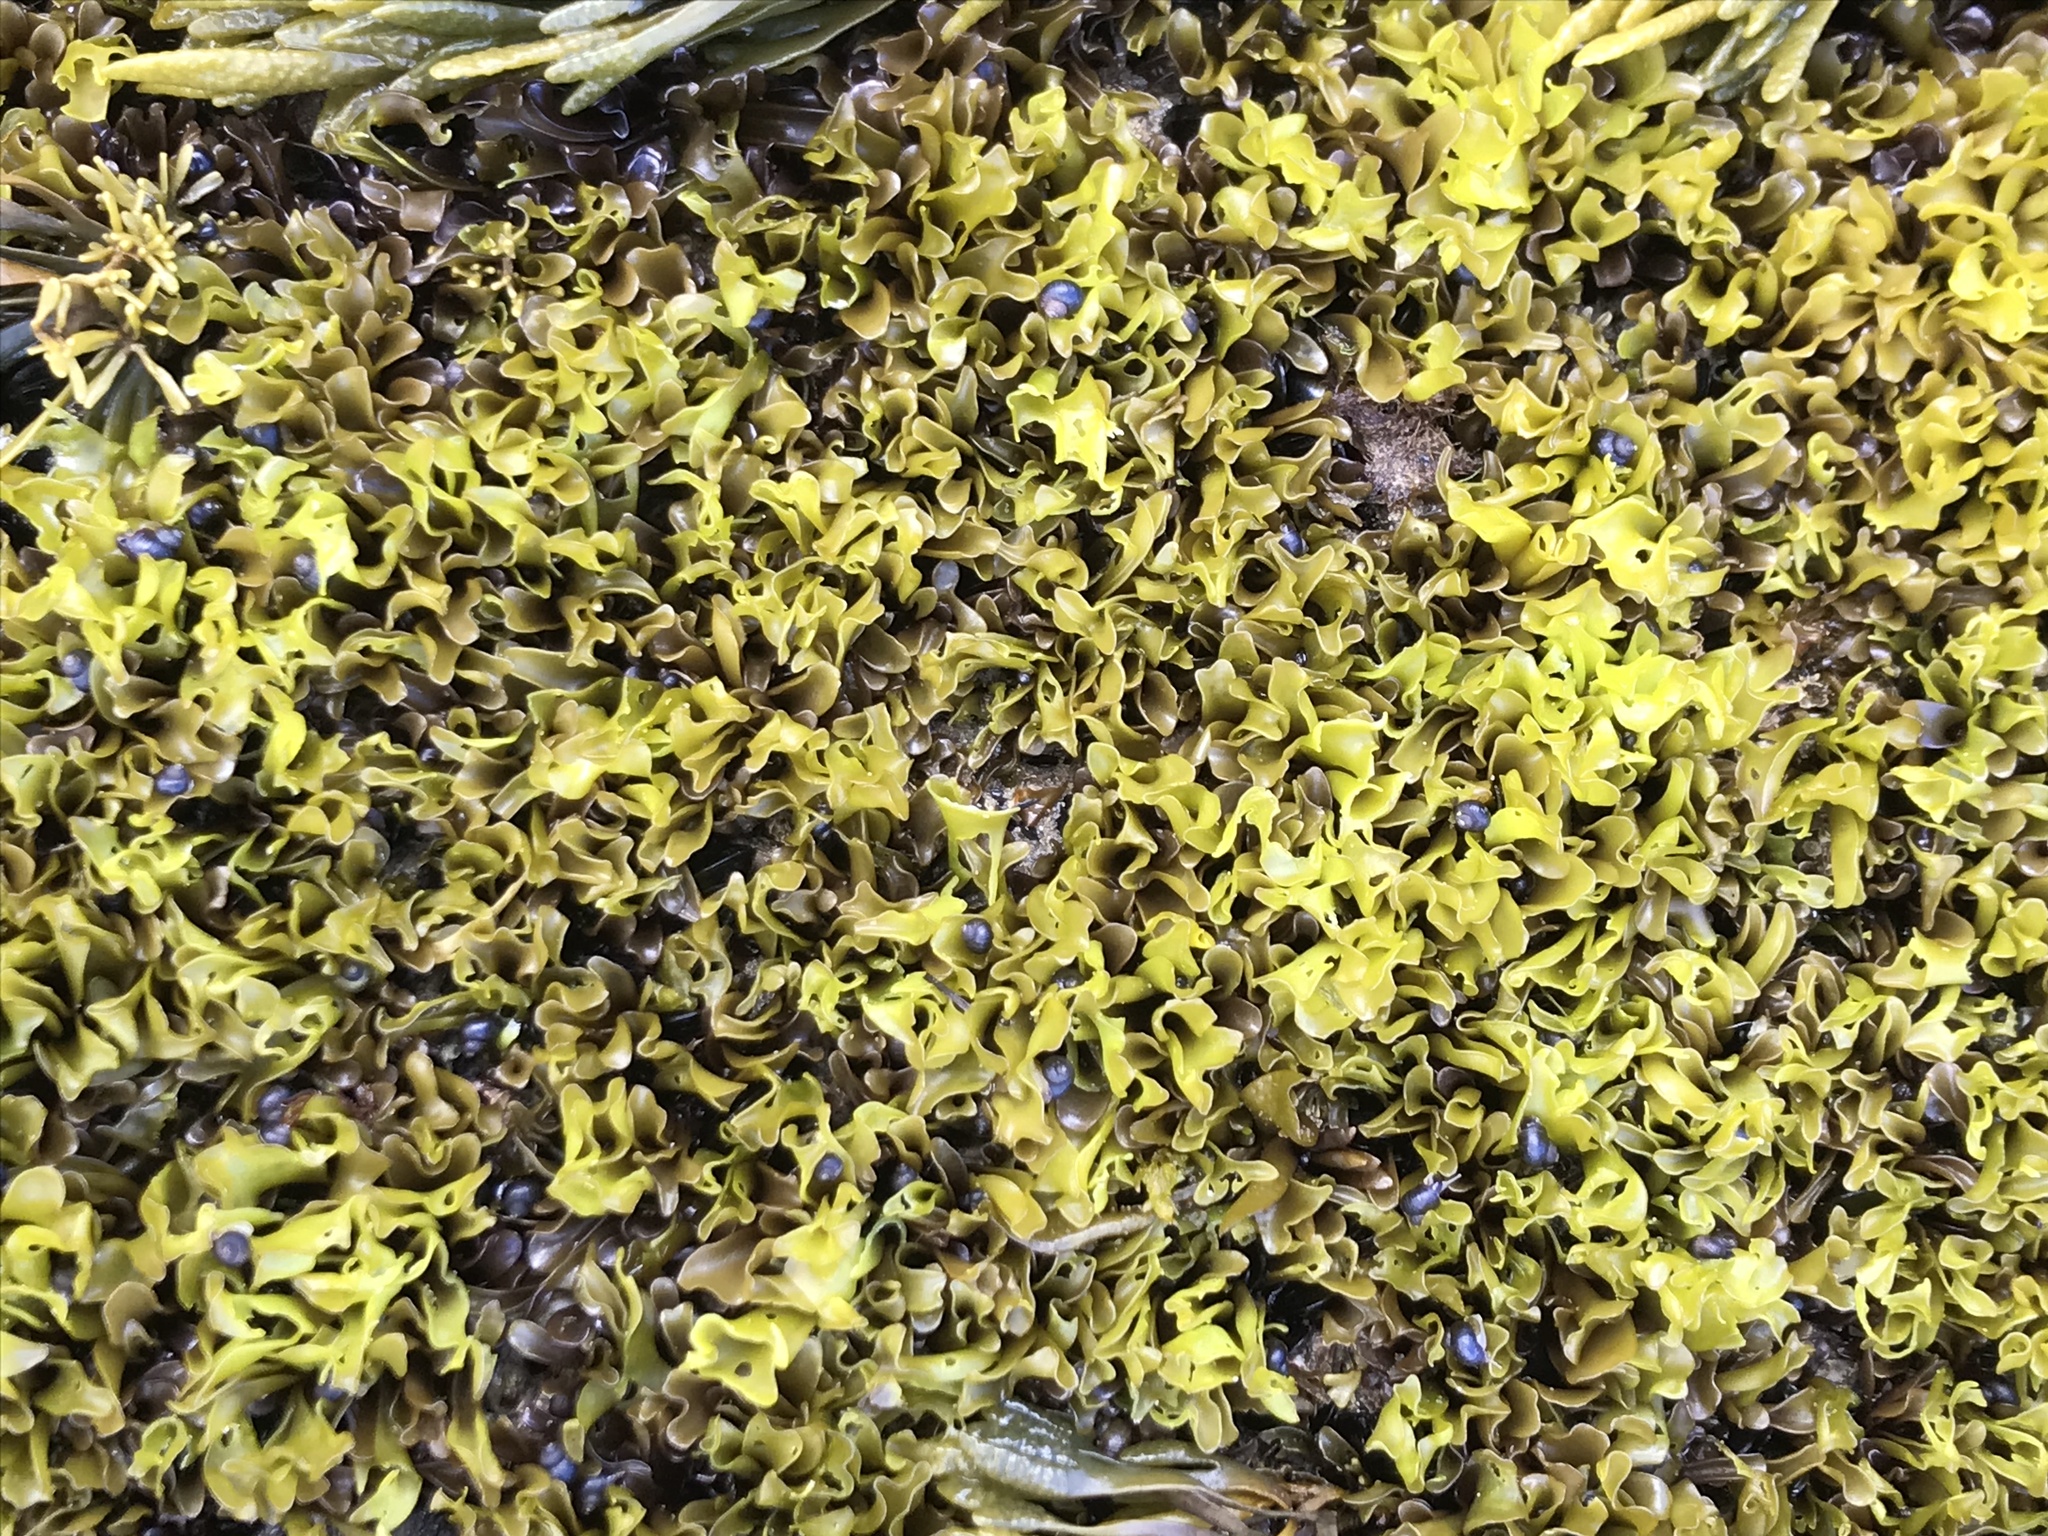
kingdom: Plantae
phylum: Rhodophyta
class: Florideophyceae
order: Gigartinales
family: Gigartinaceae
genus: Mazzaella
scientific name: Mazzaella parksii
